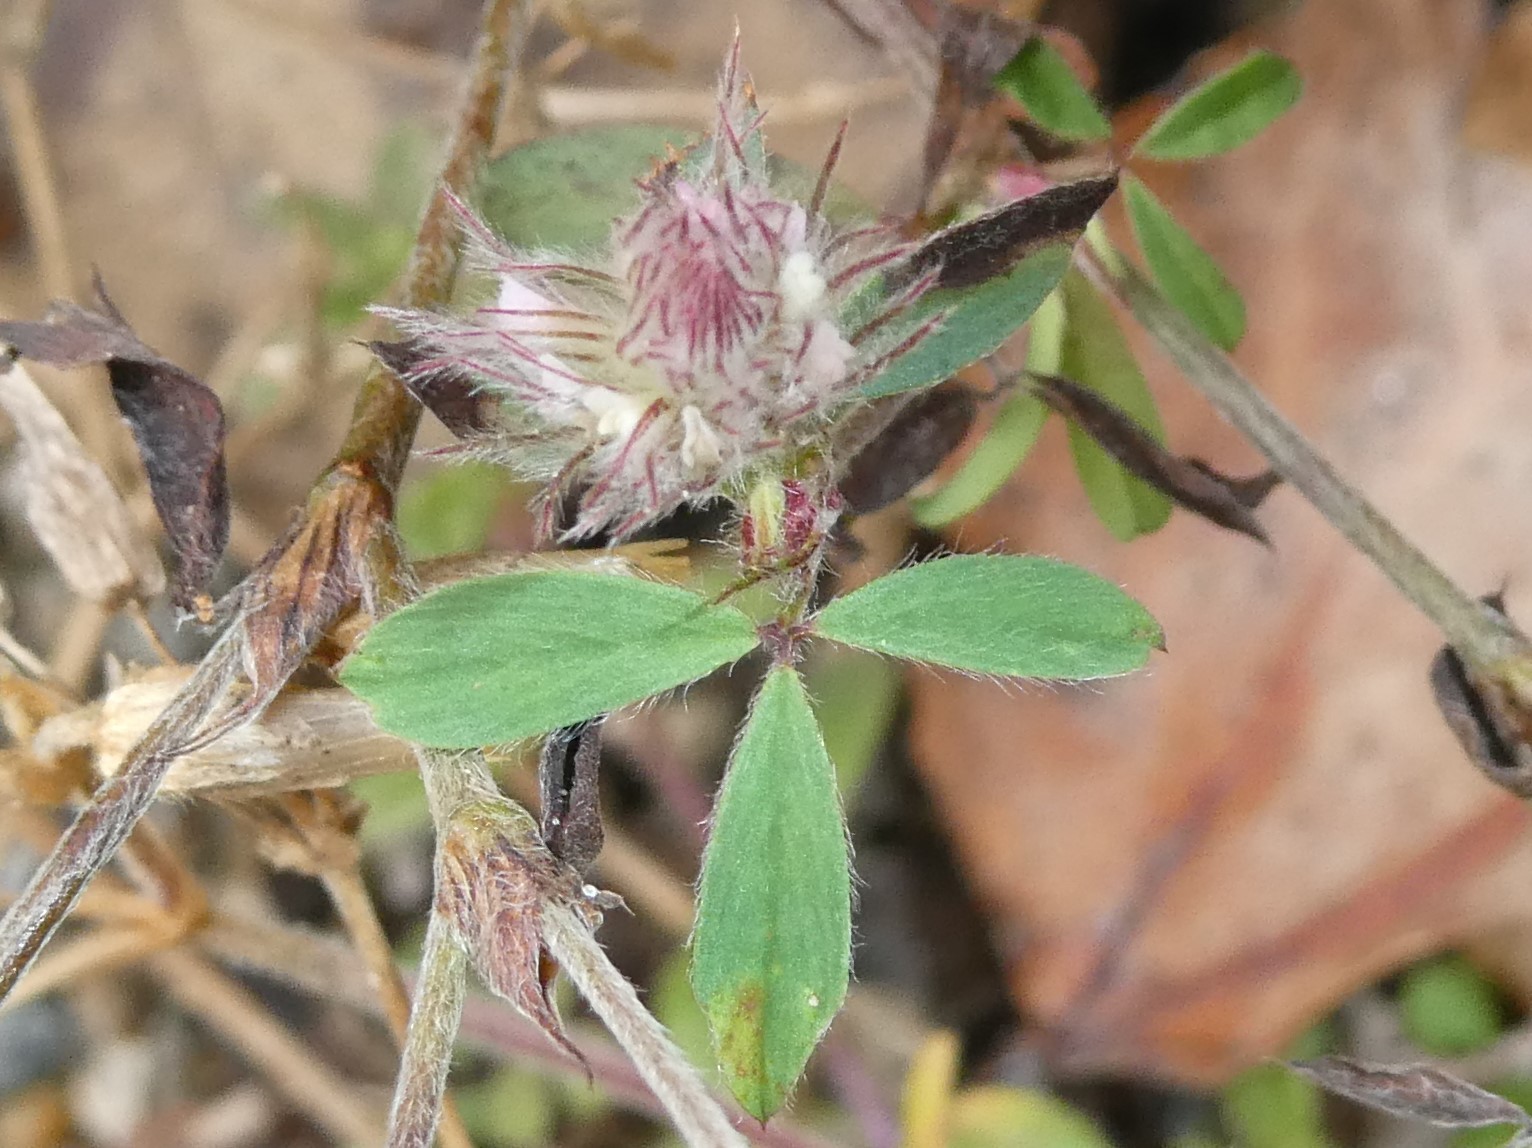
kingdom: Plantae
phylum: Tracheophyta
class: Magnoliopsida
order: Fabales
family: Fabaceae
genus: Trifolium
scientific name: Trifolium arvense
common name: Hare's-foot clover
